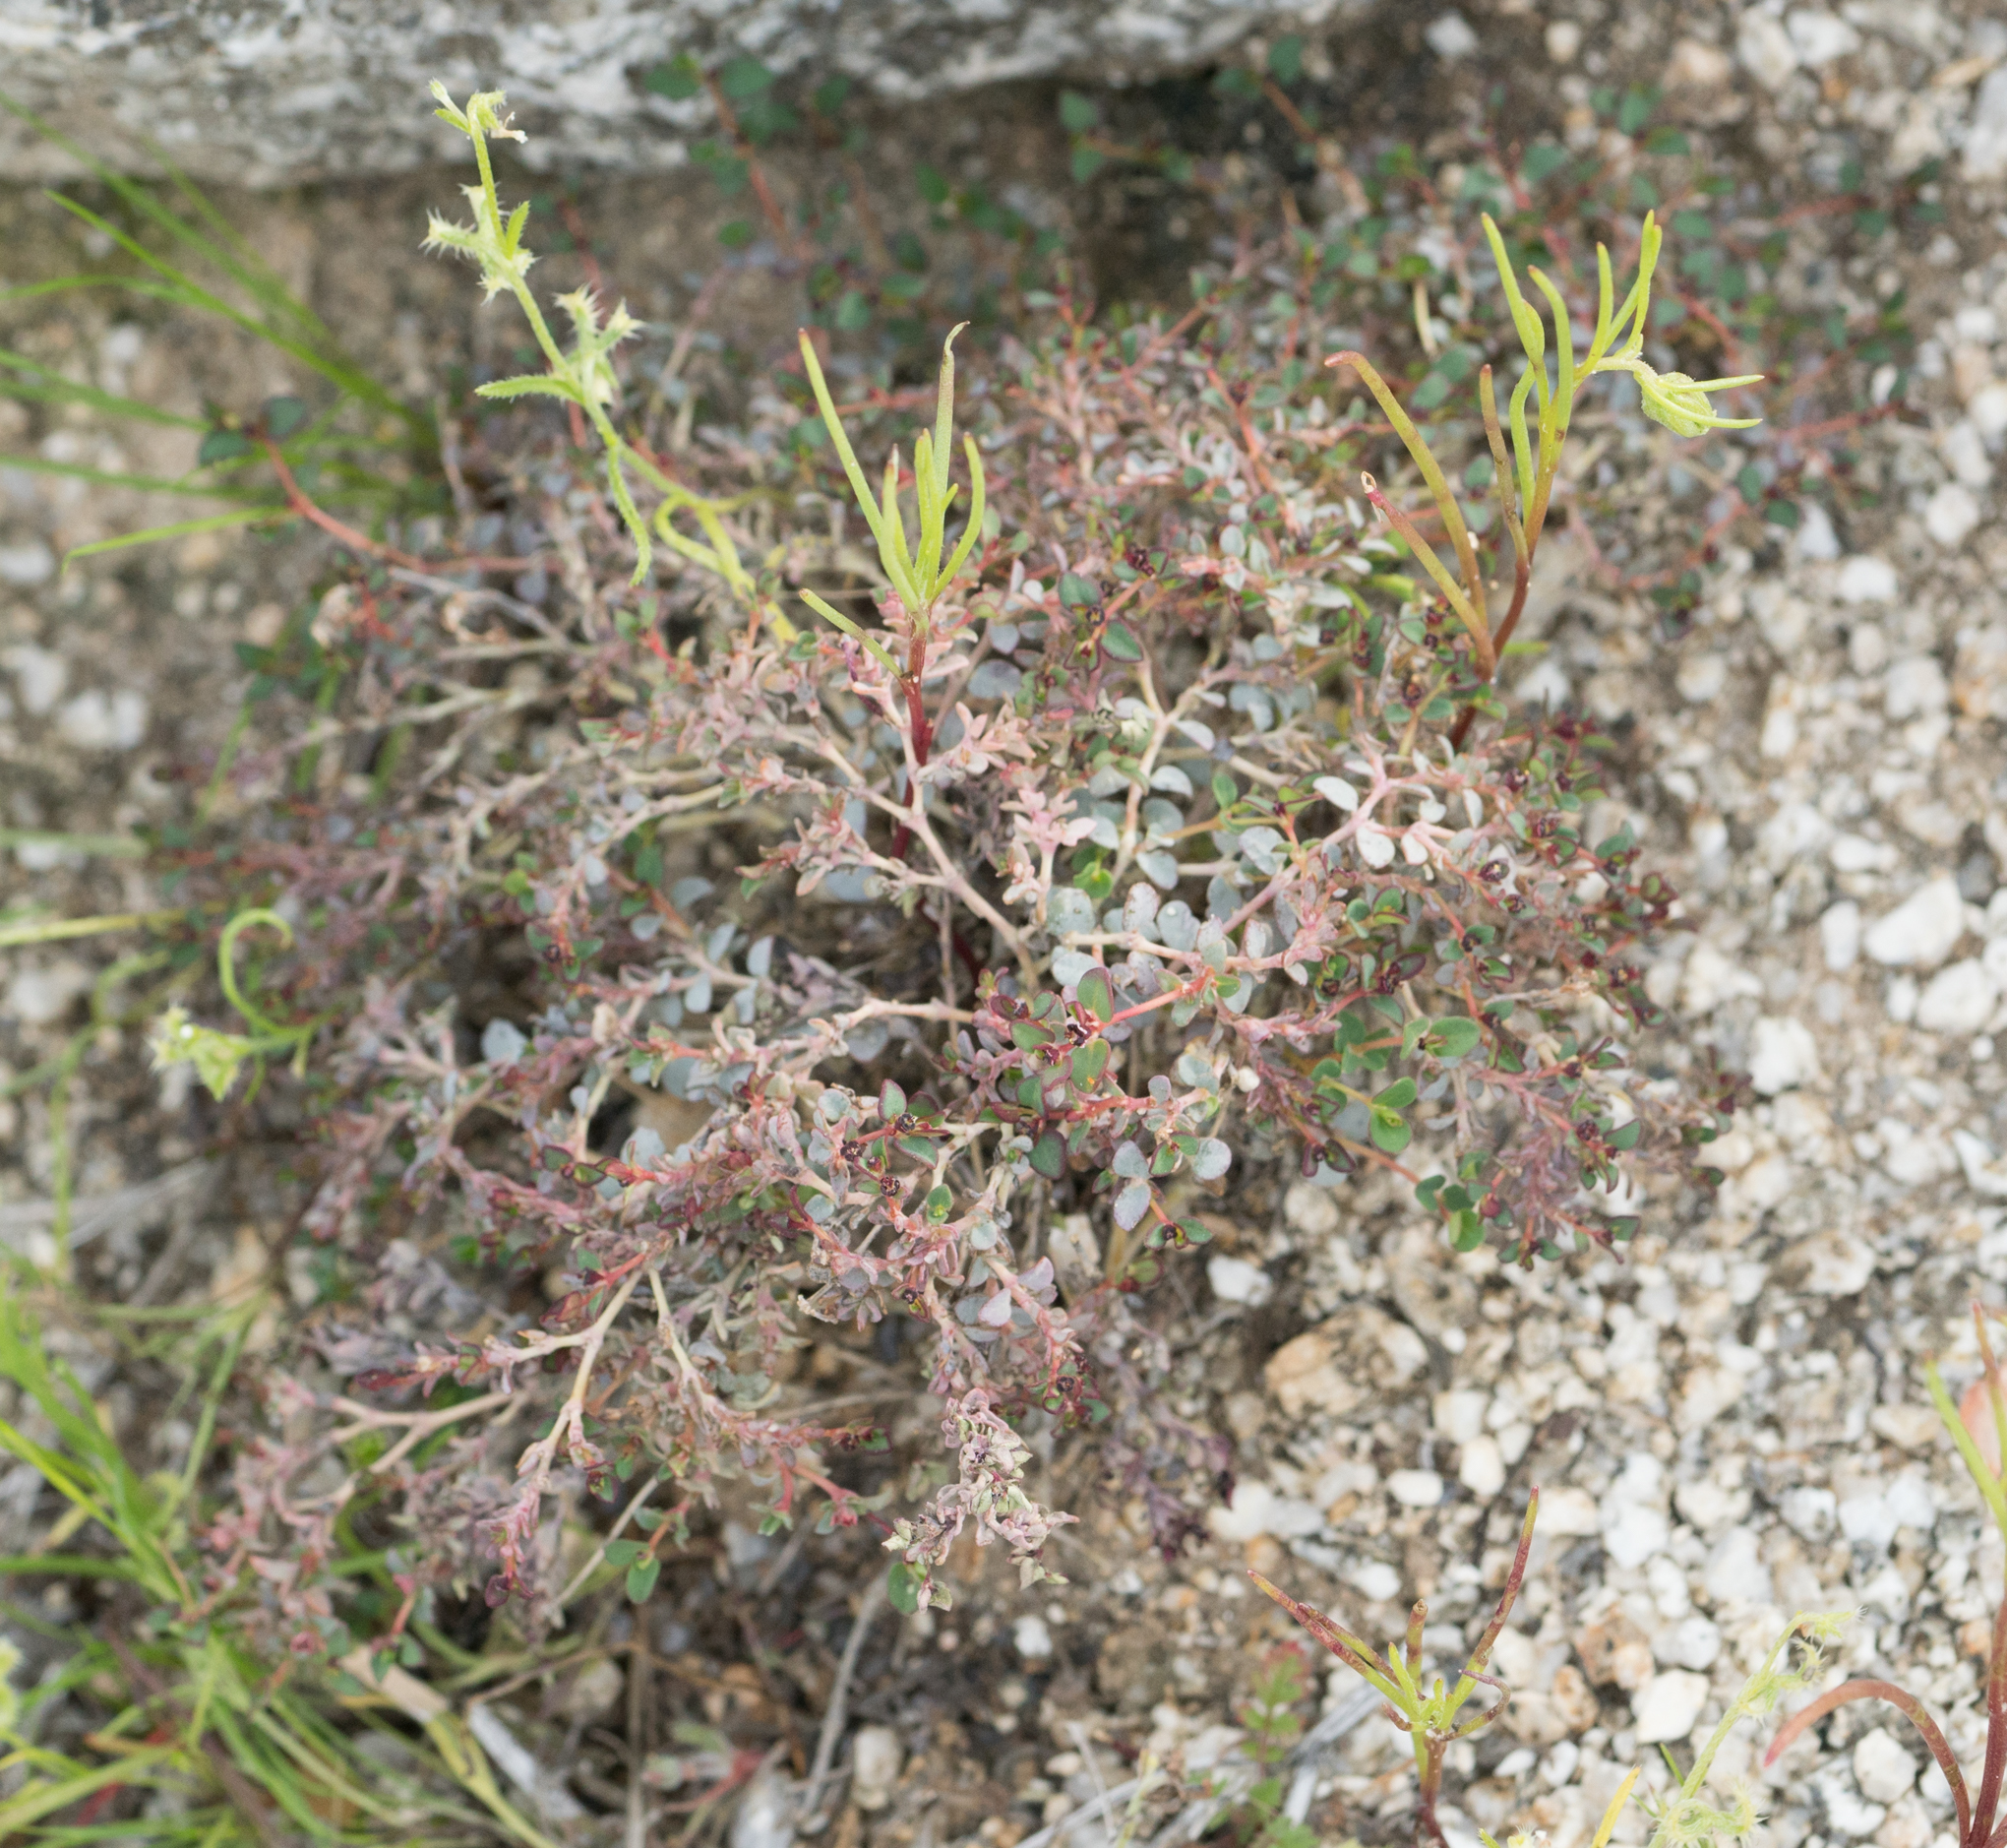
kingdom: Plantae
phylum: Tracheophyta
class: Magnoliopsida
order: Malpighiales
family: Euphorbiaceae
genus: Euphorbia
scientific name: Euphorbia polycarpa
